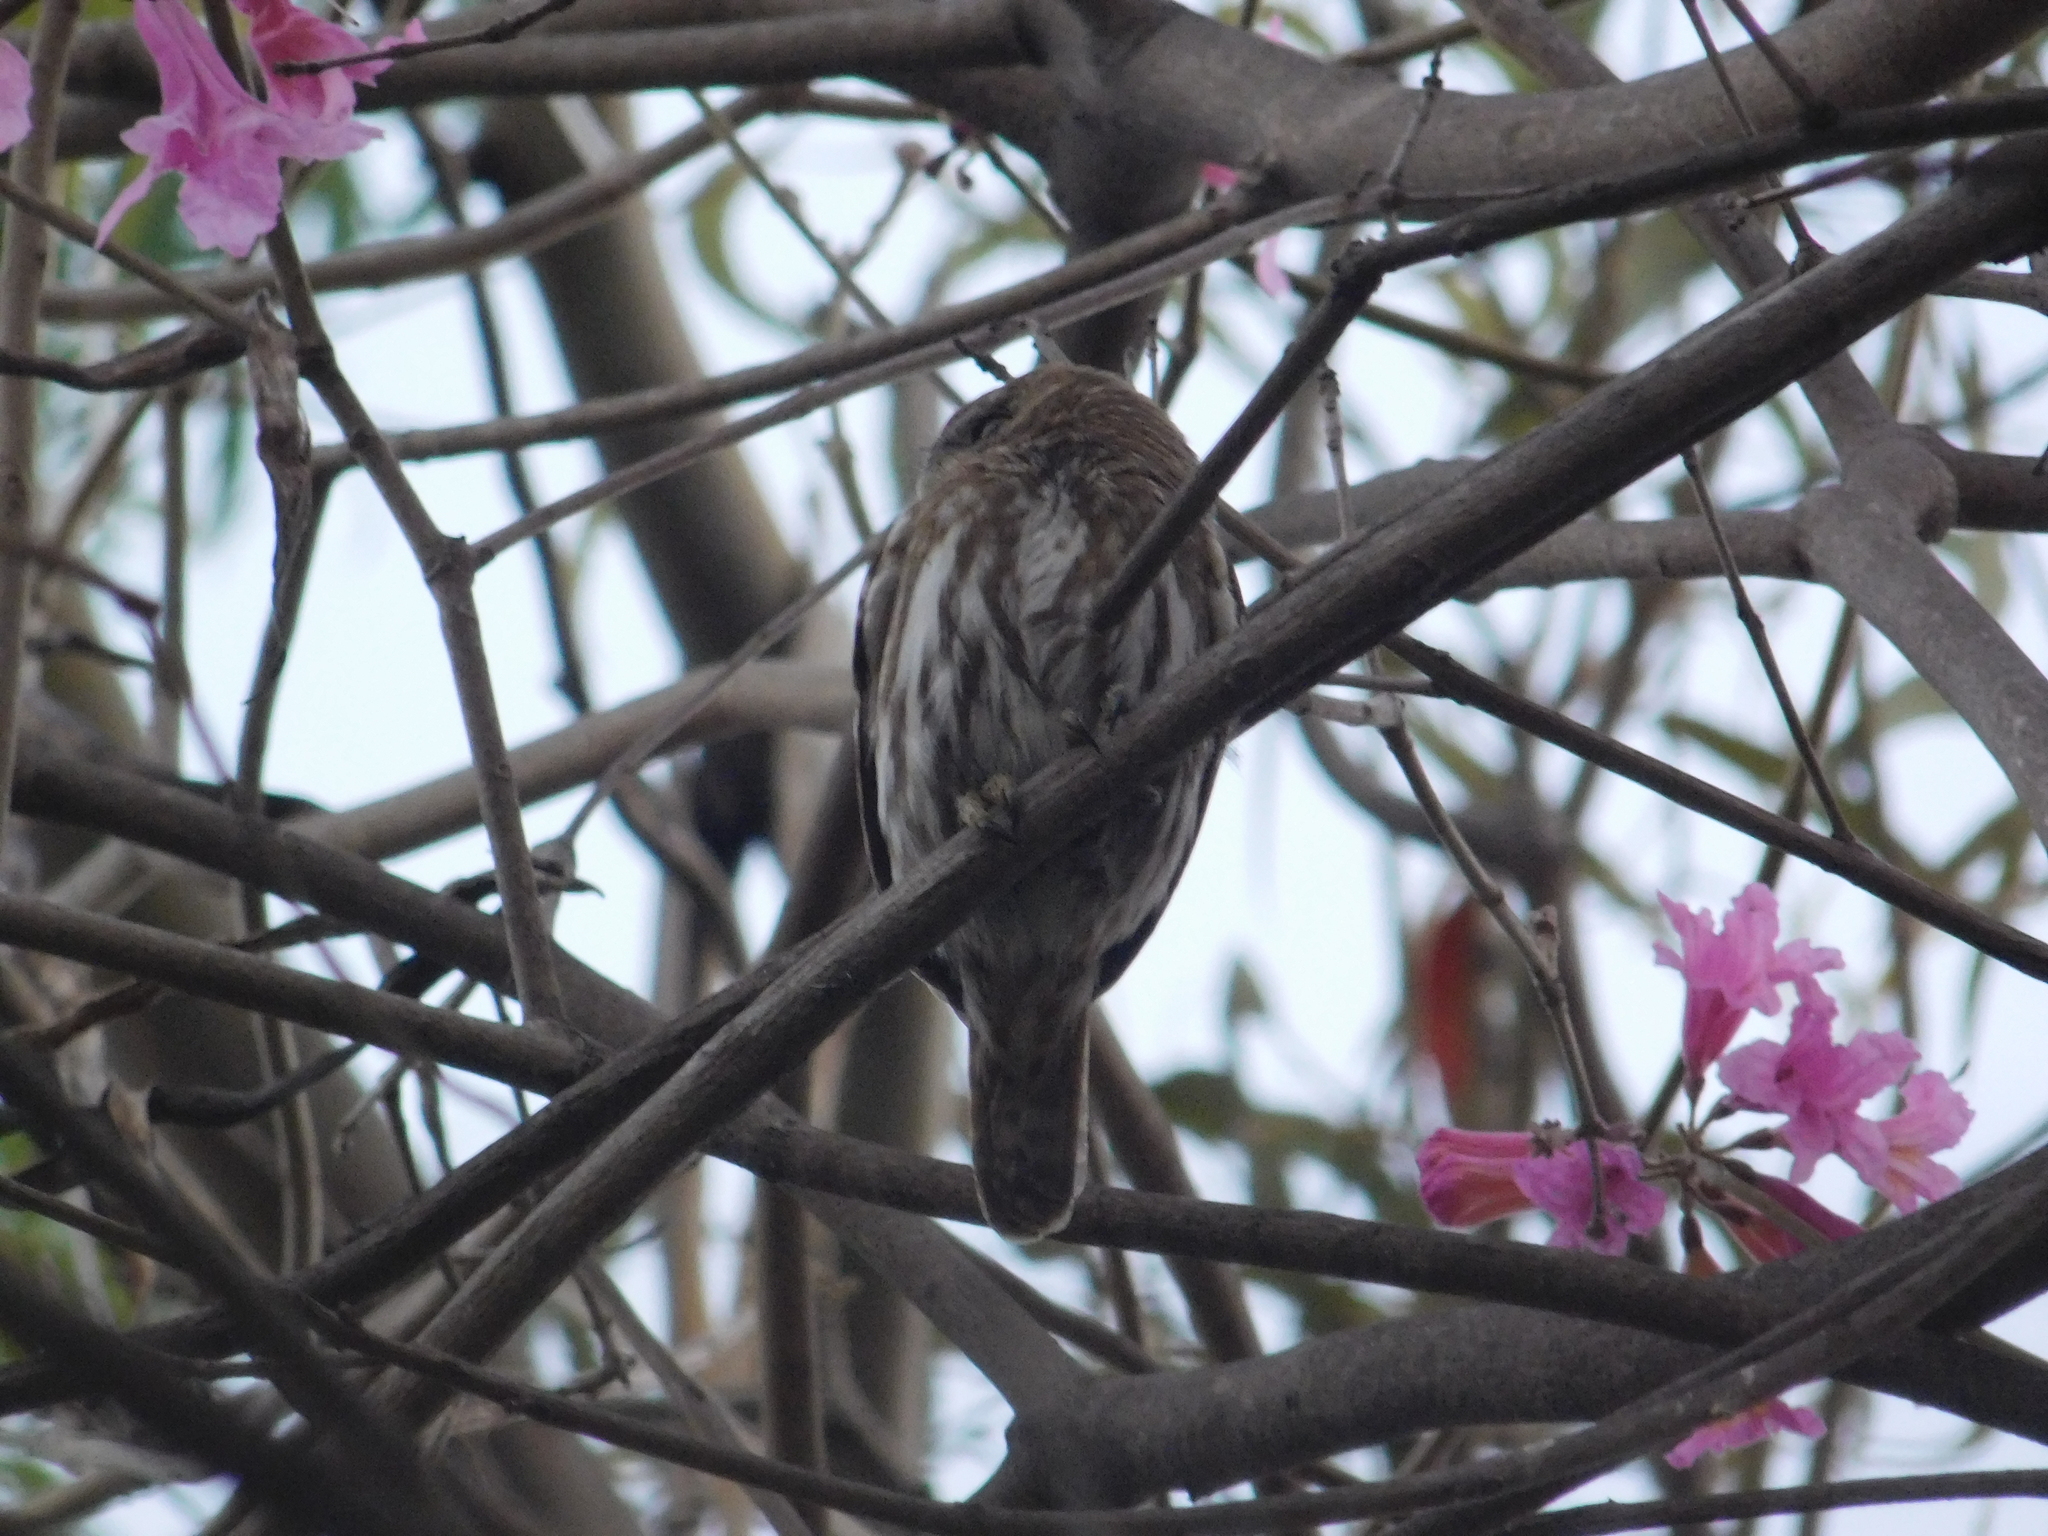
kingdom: Animalia
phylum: Chordata
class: Aves
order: Strigiformes
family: Strigidae
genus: Glaucidium
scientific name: Glaucidium brasilianum
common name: Ferruginous pygmy-owl
